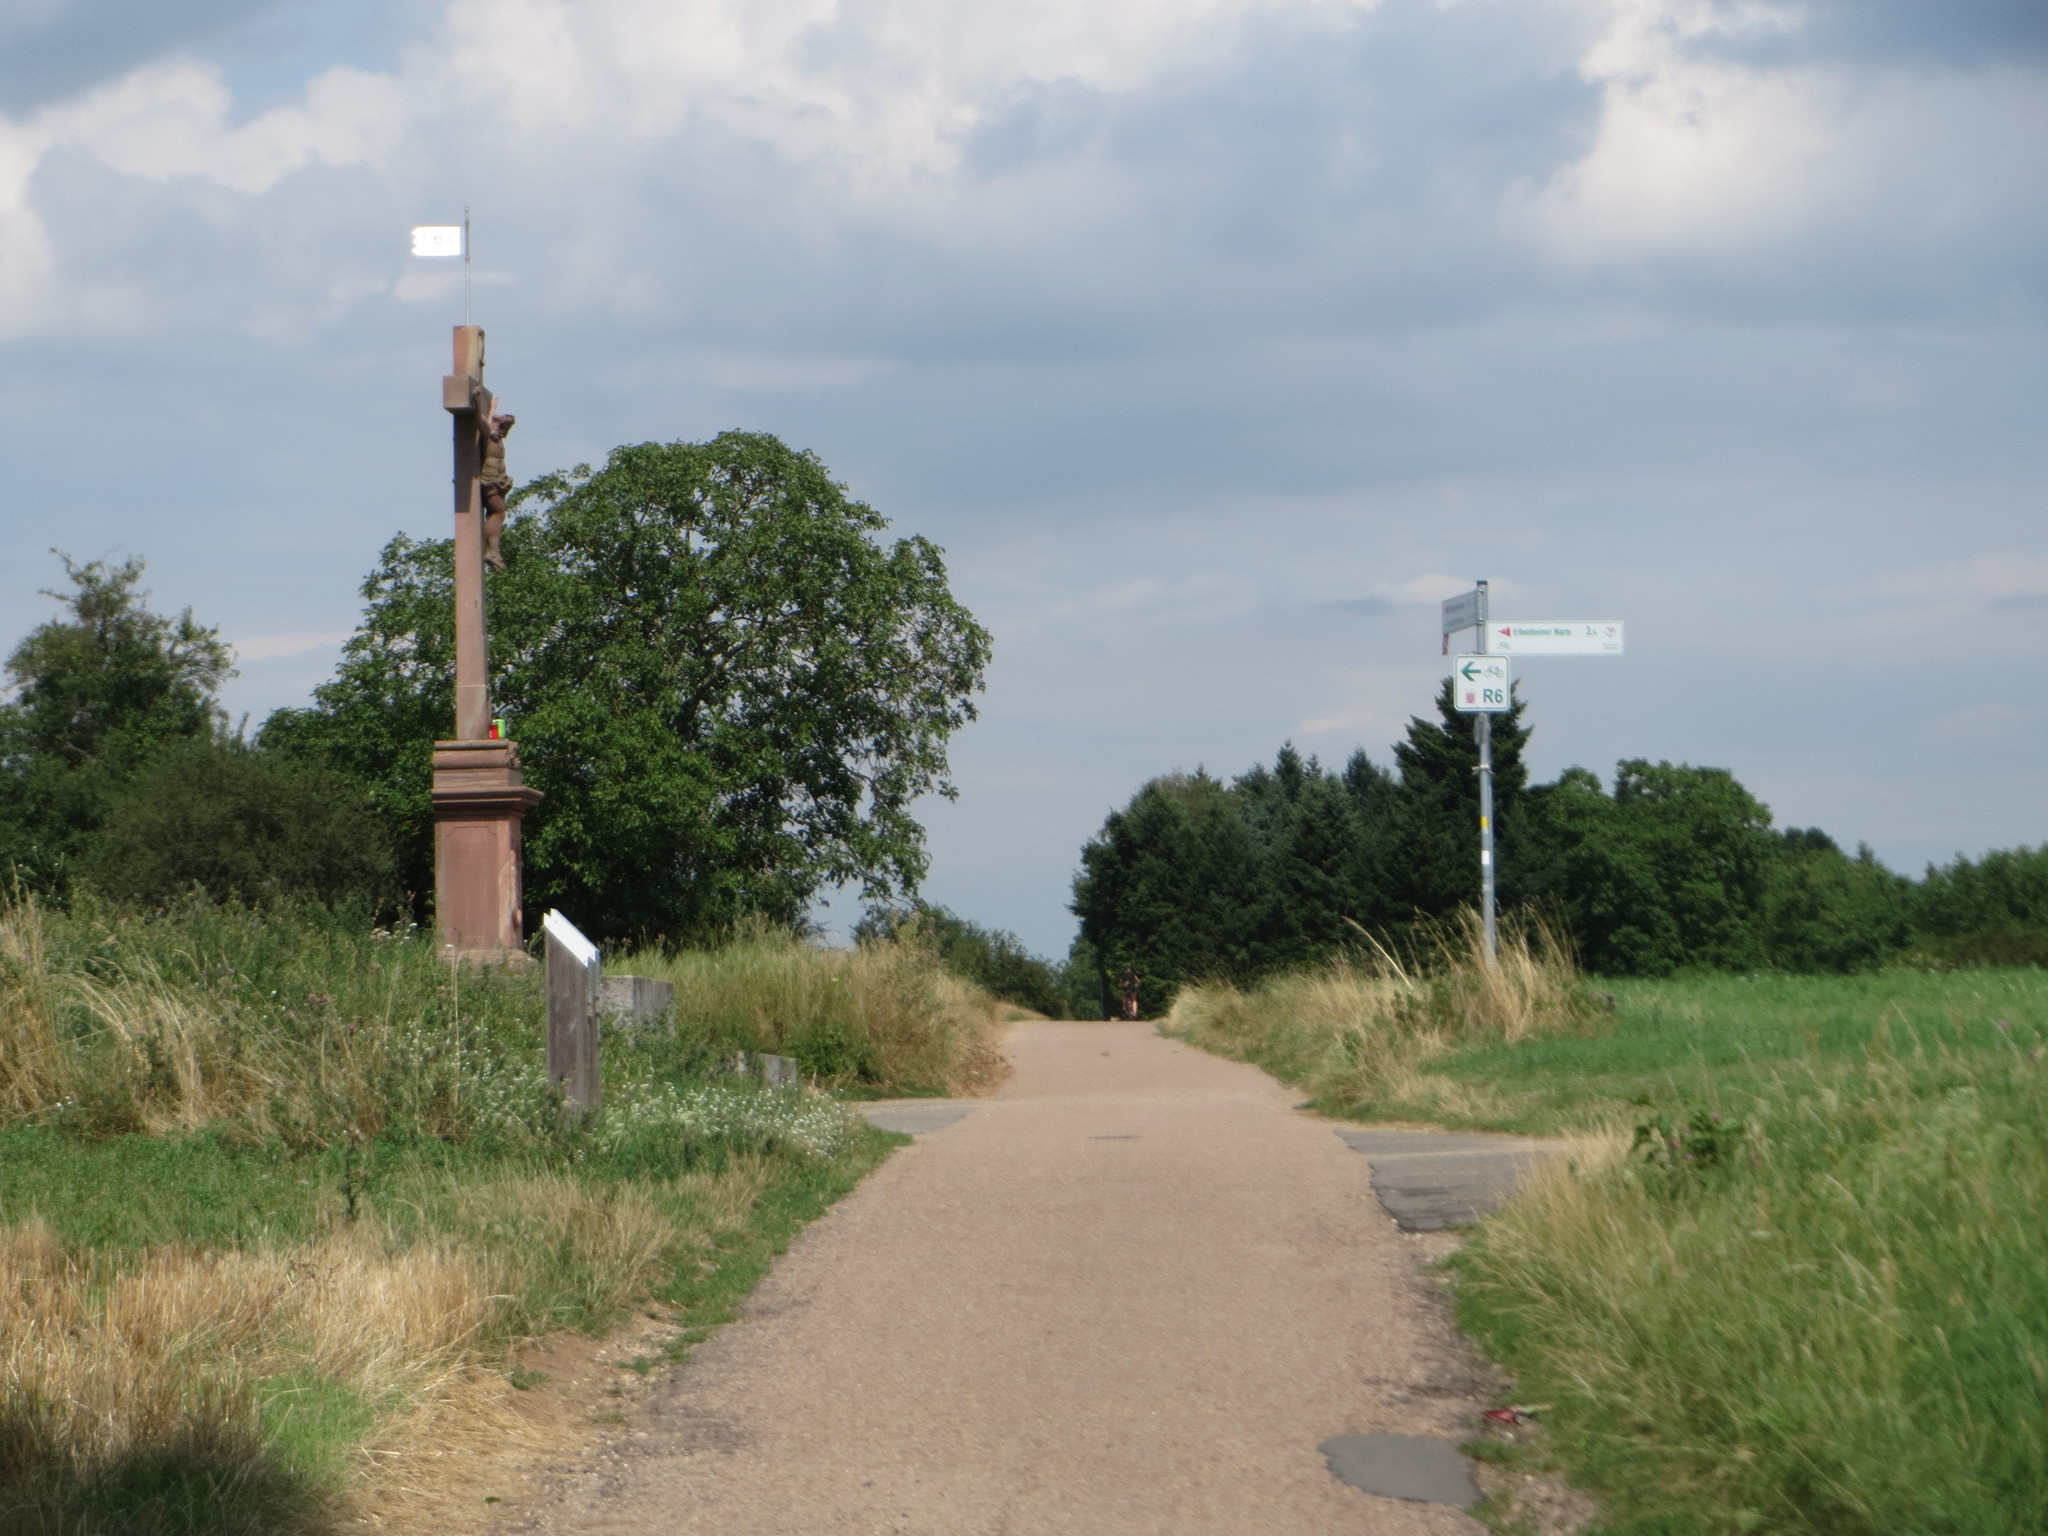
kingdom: Plantae
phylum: Tracheophyta
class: Magnoliopsida
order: Apiales
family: Apiaceae
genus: Eryngium
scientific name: Eryngium campestre
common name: Field eryngo
